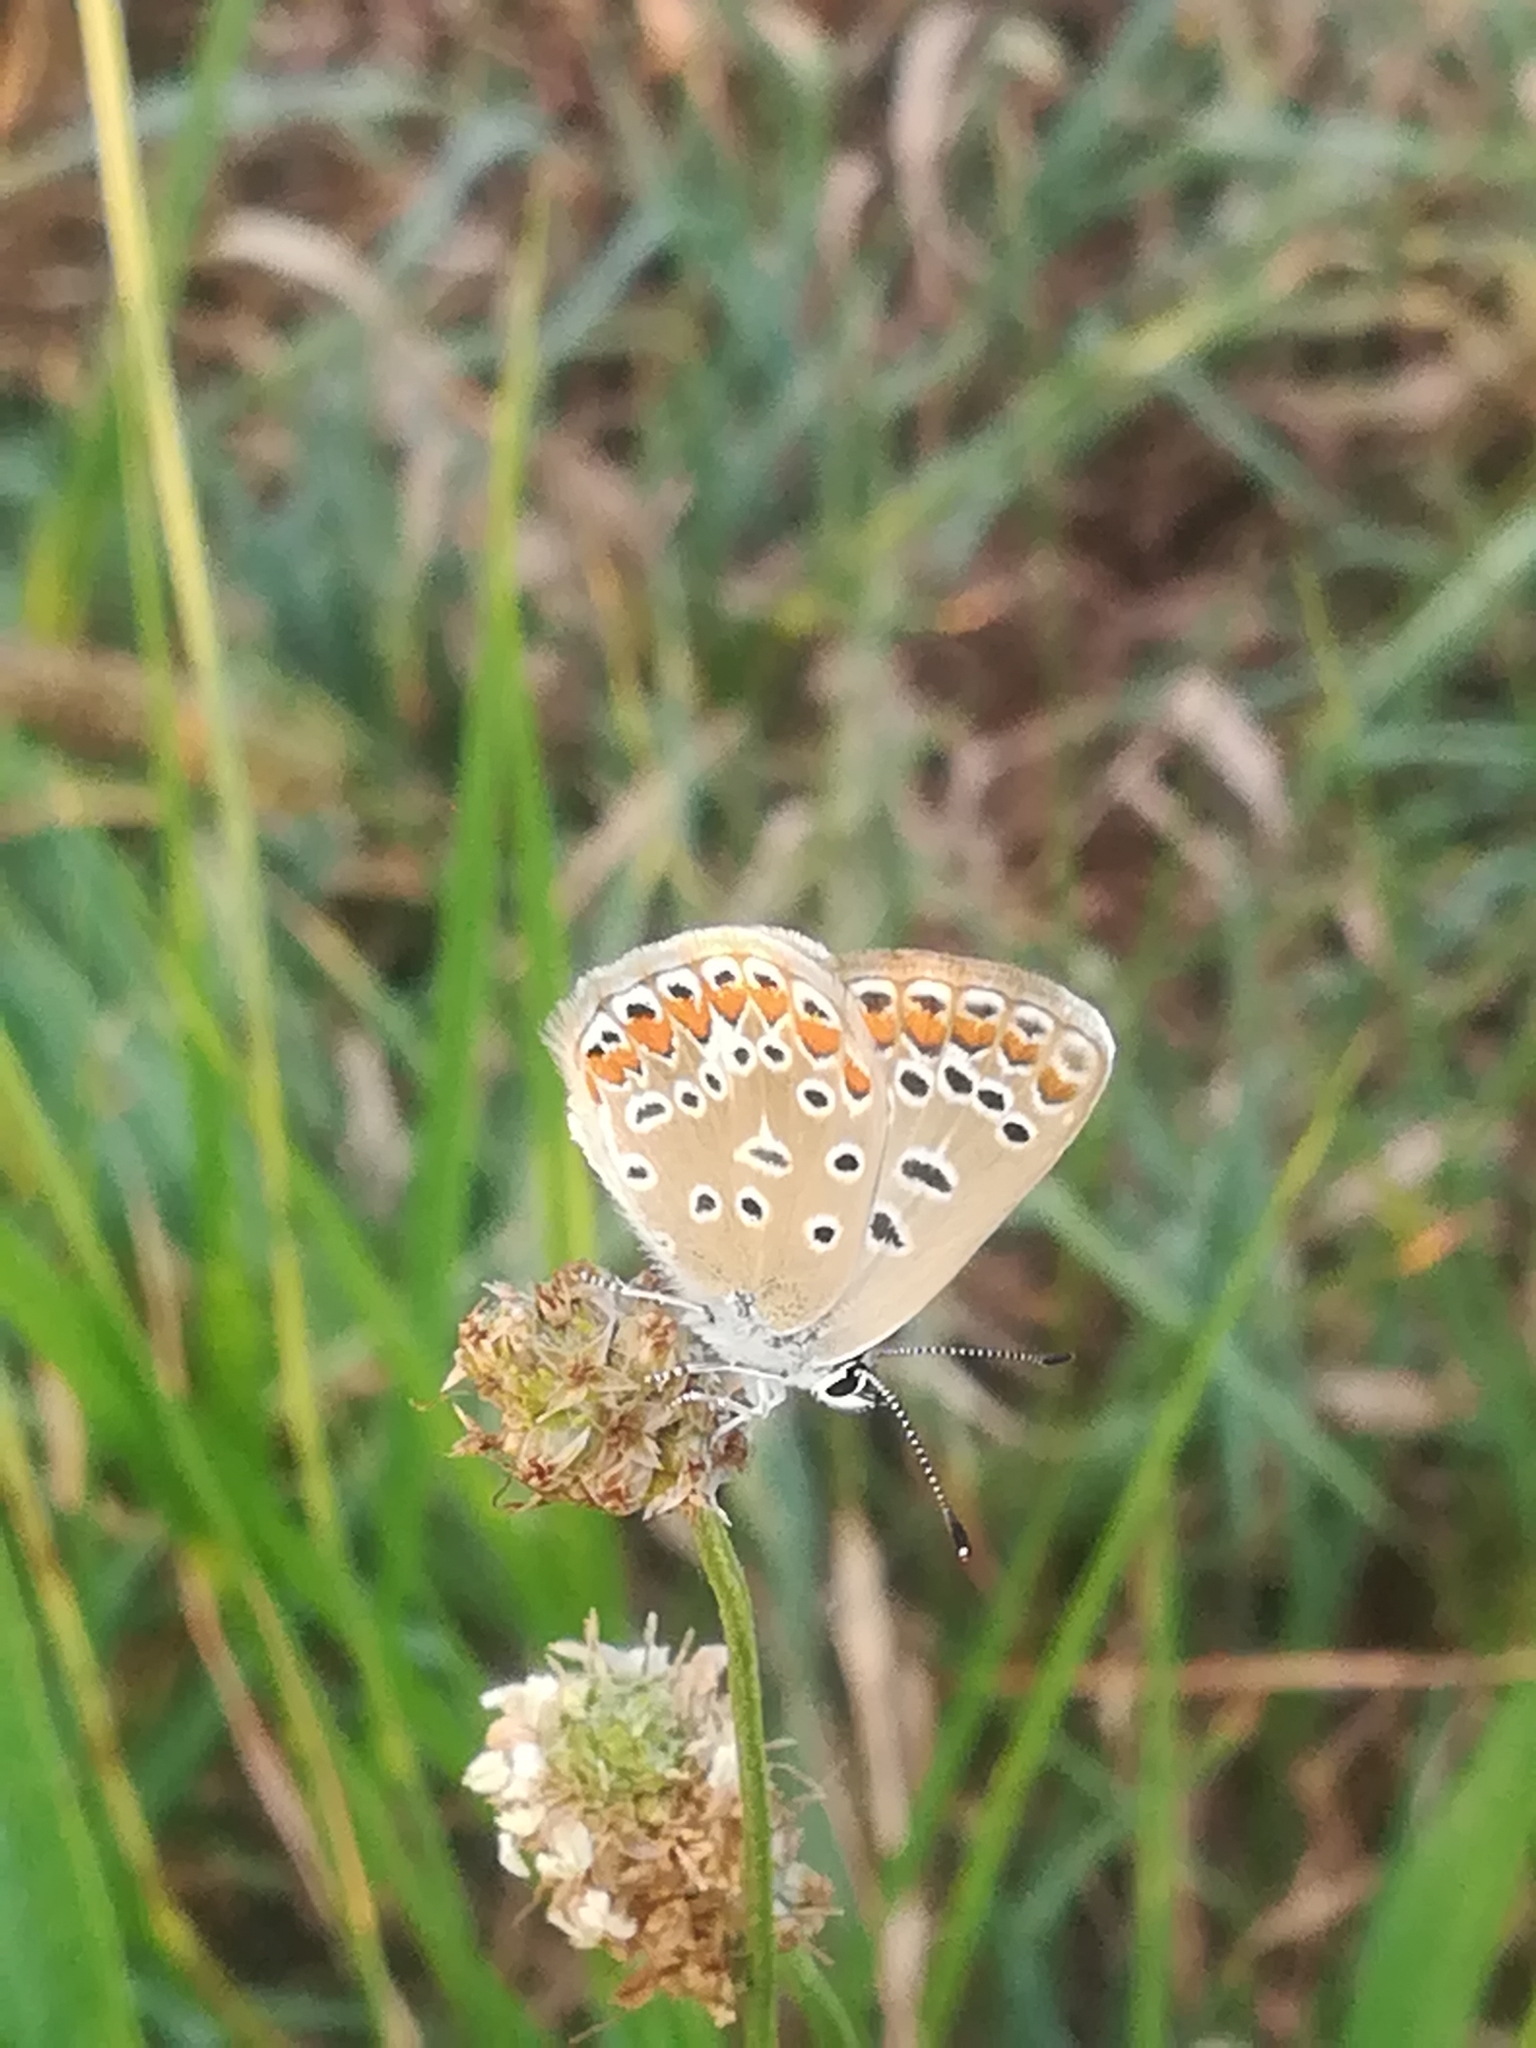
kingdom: Animalia
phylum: Arthropoda
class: Insecta
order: Lepidoptera
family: Lycaenidae
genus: Polyommatus
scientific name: Polyommatus icarus
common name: Common blue
